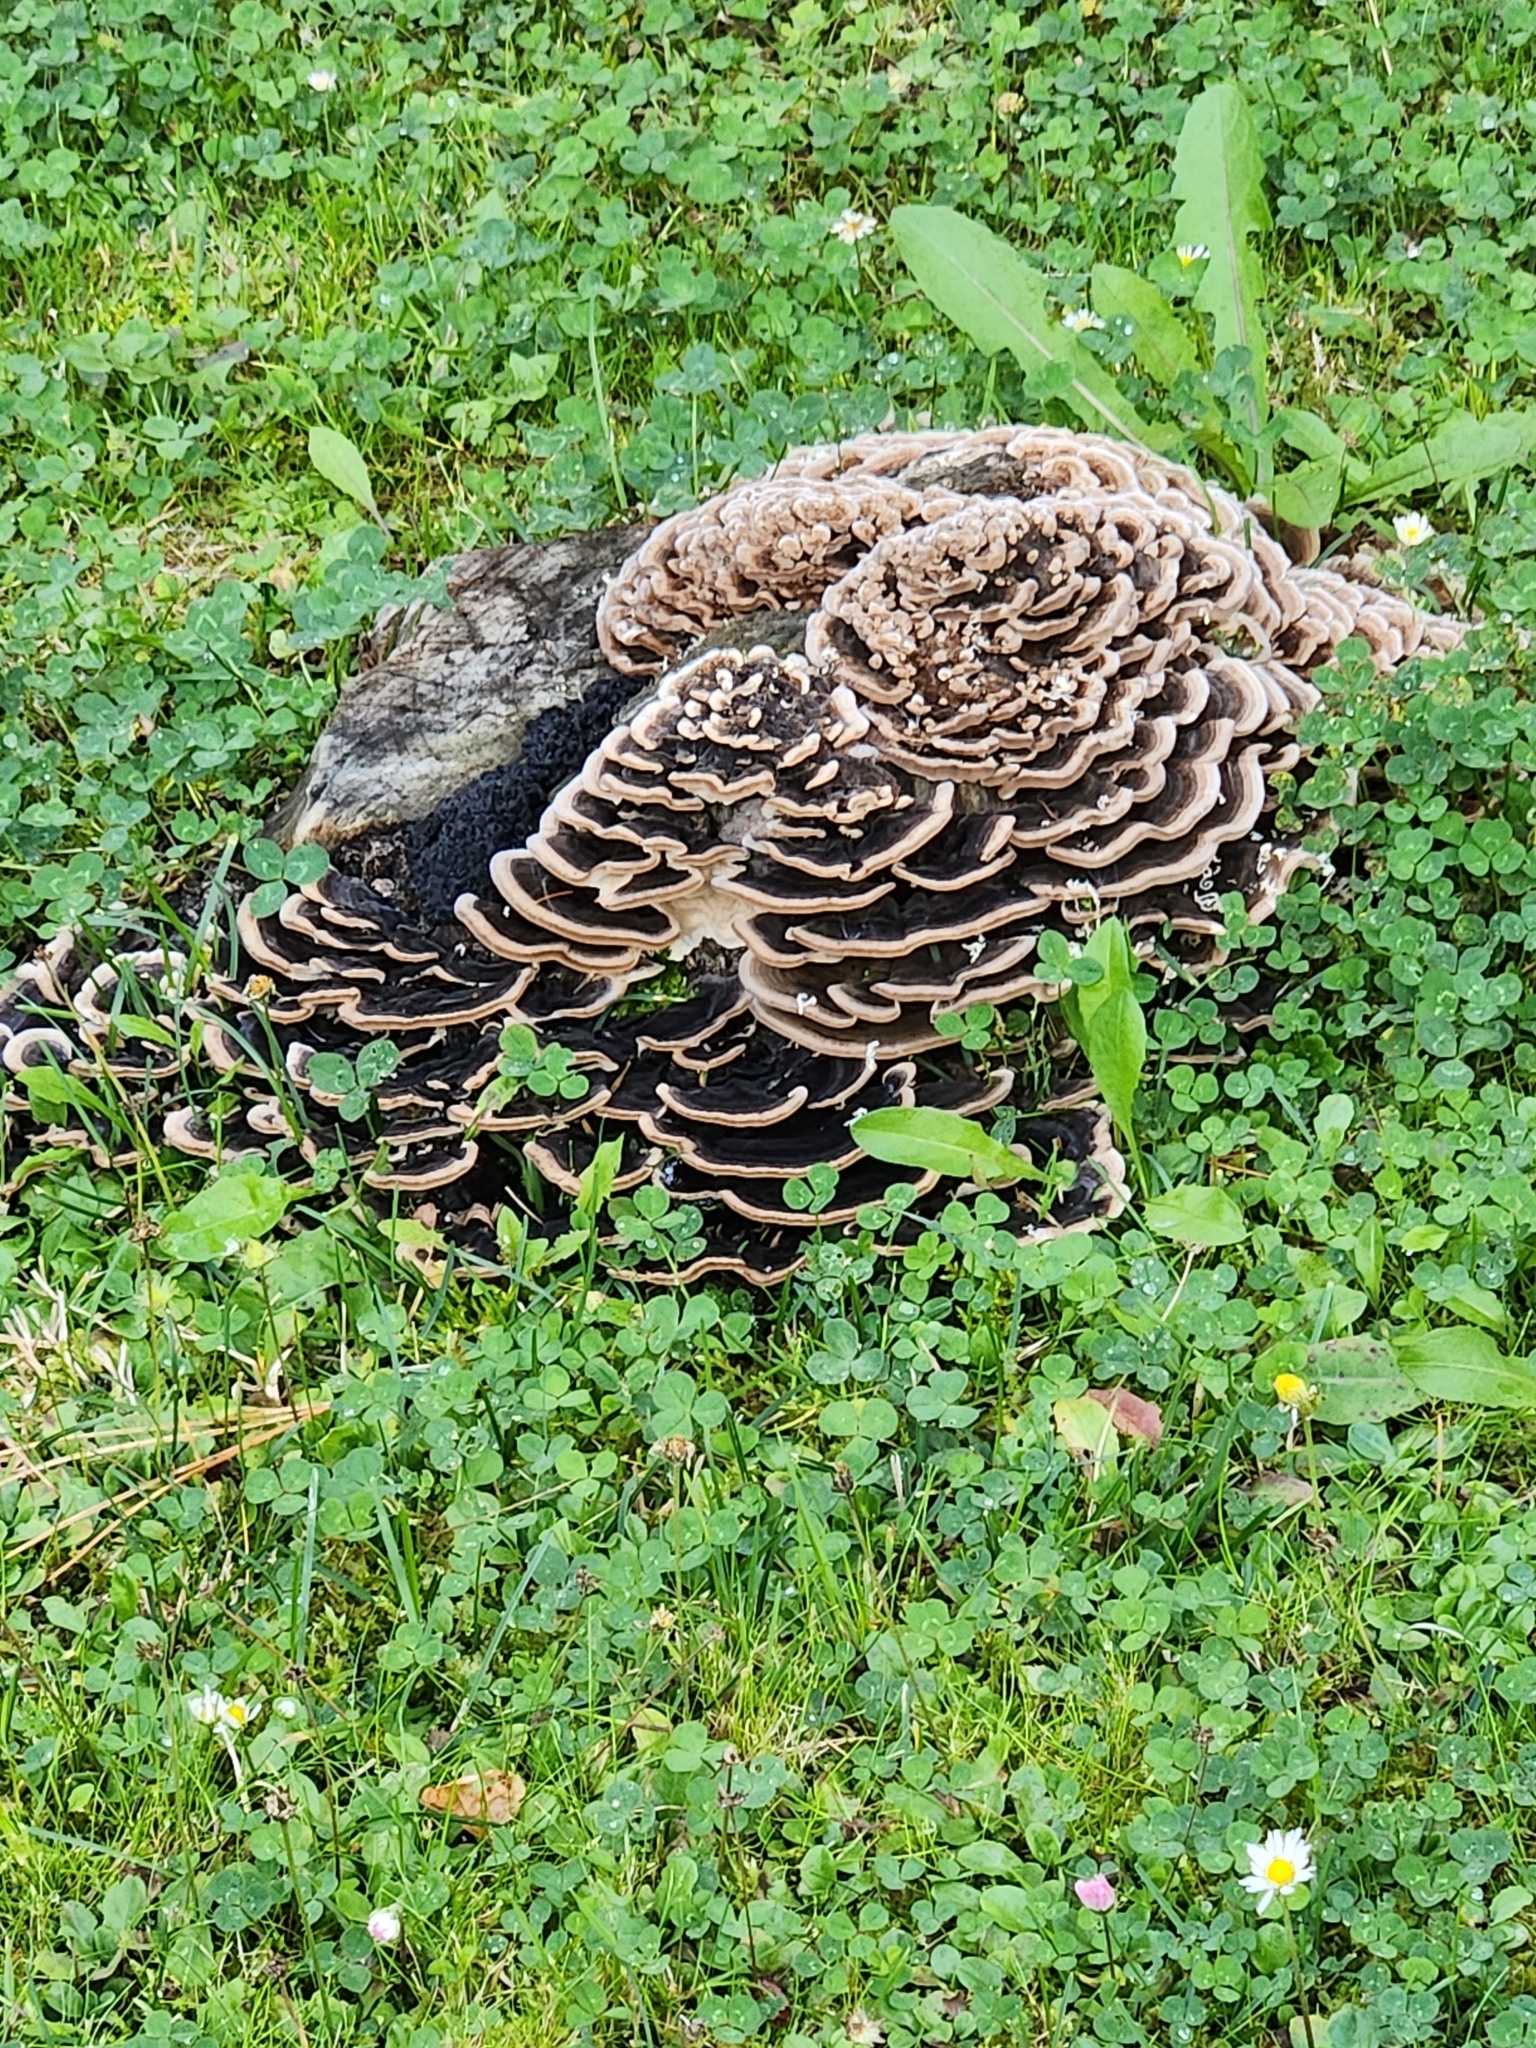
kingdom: Fungi
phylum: Basidiomycota
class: Agaricomycetes
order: Polyporales
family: Phanerochaetaceae
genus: Bjerkandera
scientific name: Bjerkandera adusta
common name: Smoky bracket
